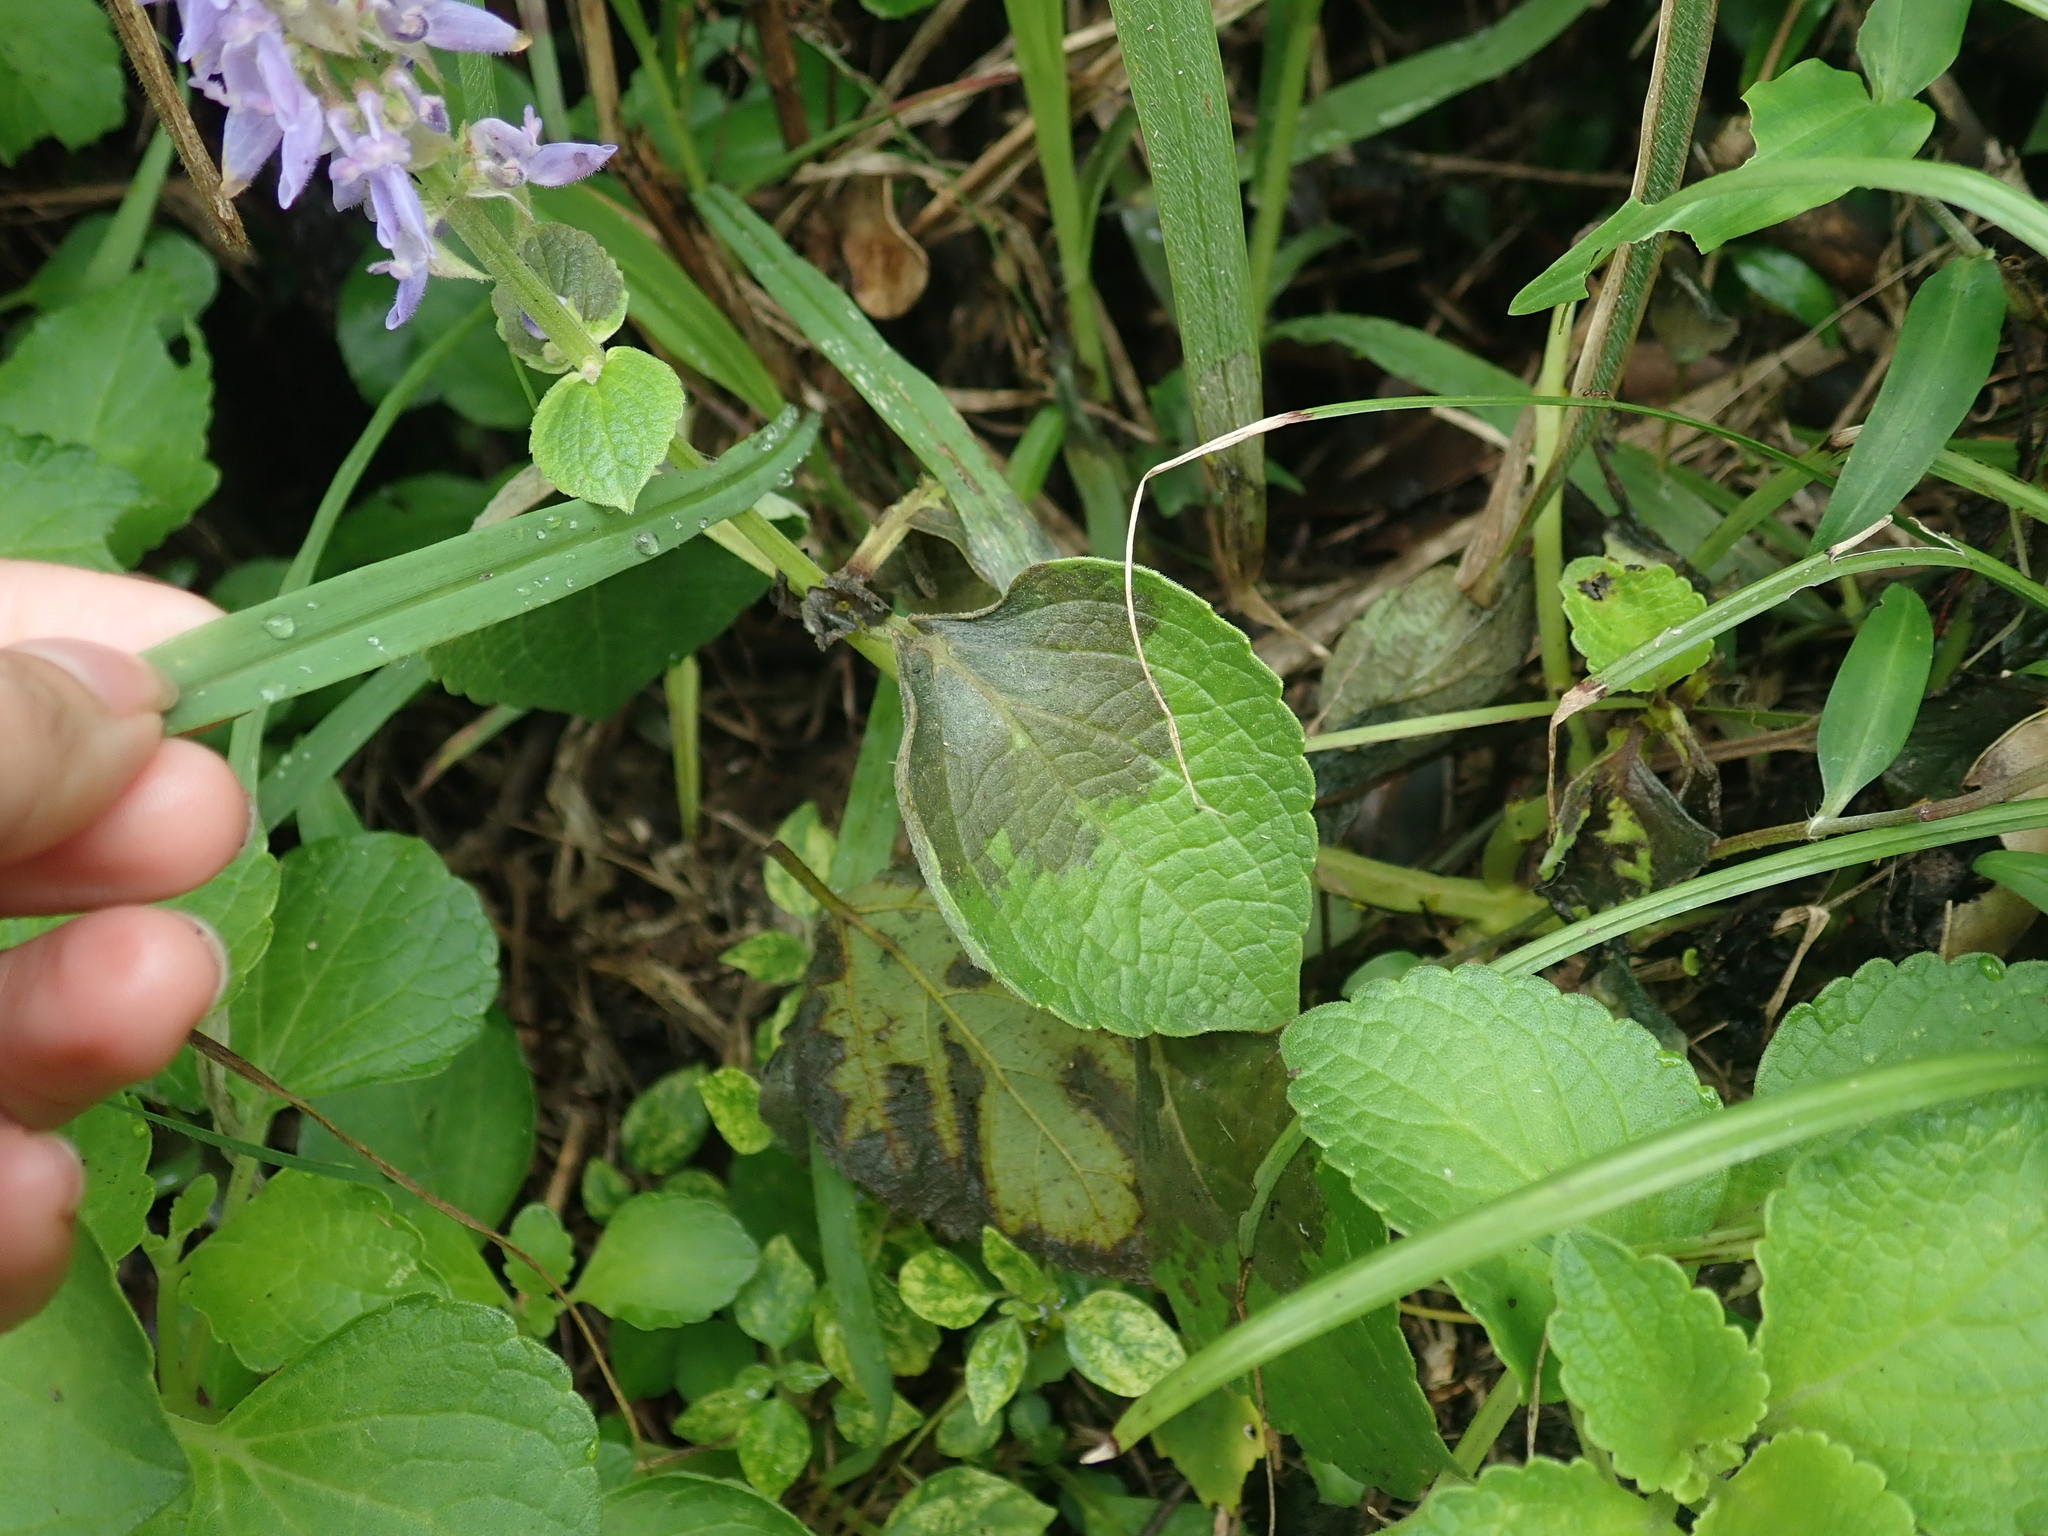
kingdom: Plantae
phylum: Tracheophyta
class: Magnoliopsida
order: Lamiales
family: Lamiaceae
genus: Coleus
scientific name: Coleus scutellarioides
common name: Coleus
